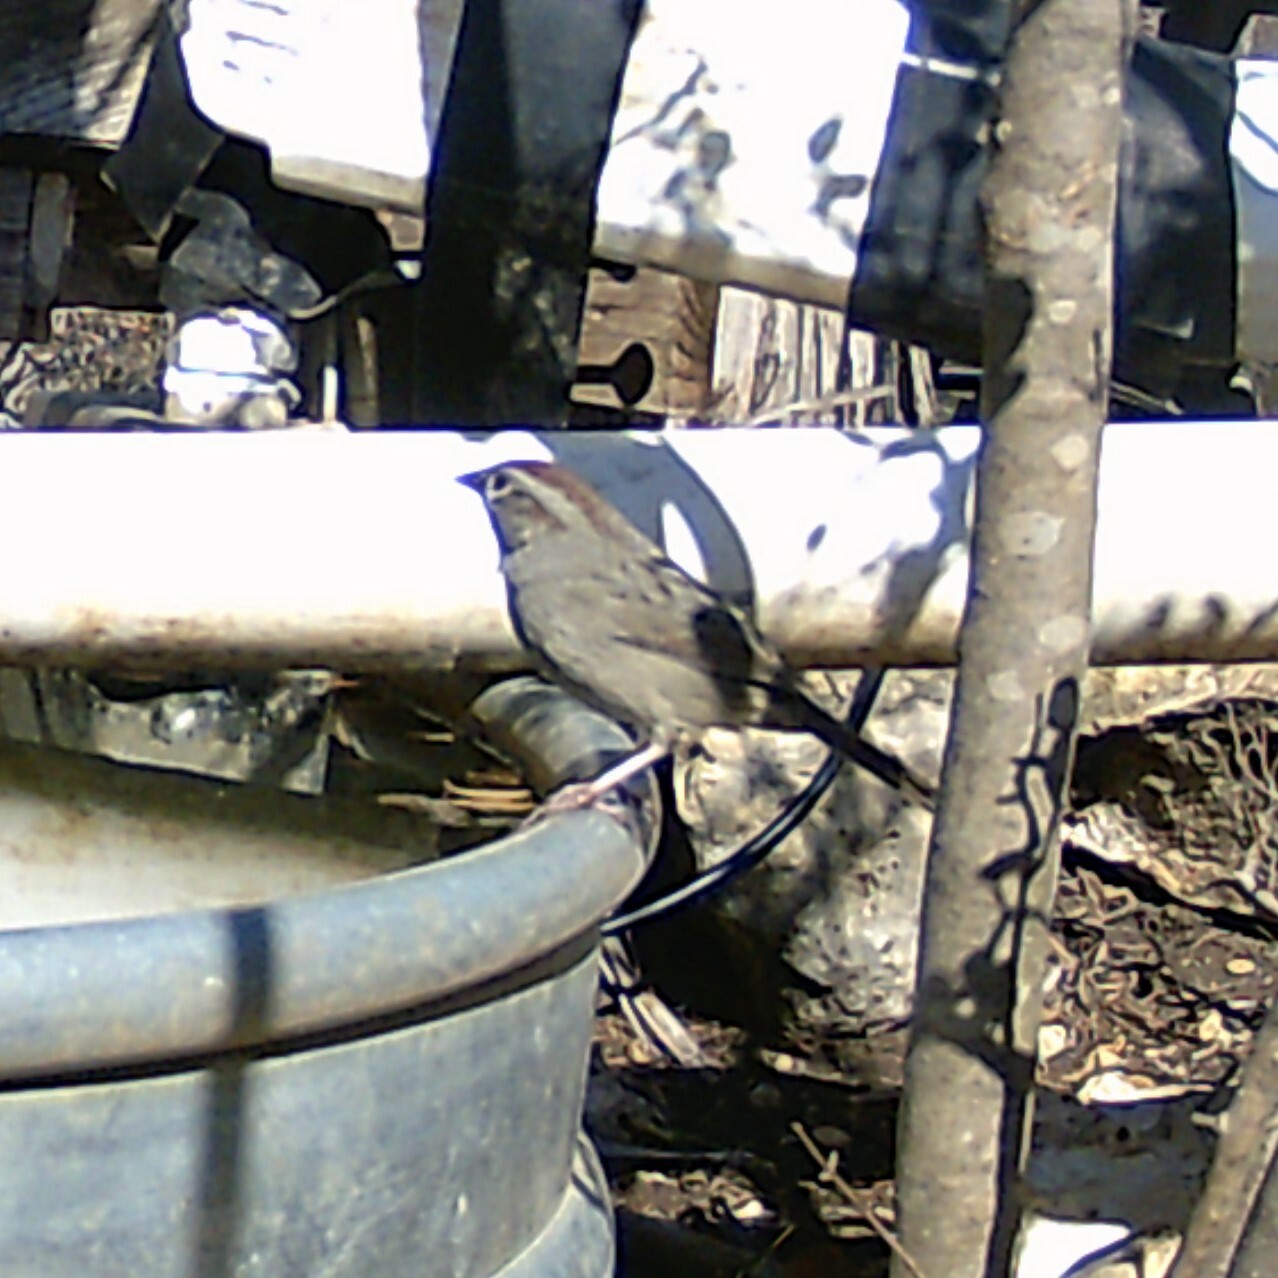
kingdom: Animalia
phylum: Chordata
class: Aves
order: Passeriformes
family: Passerellidae
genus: Aimophila
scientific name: Aimophila ruficeps
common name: Rufous-crowned sparrow
